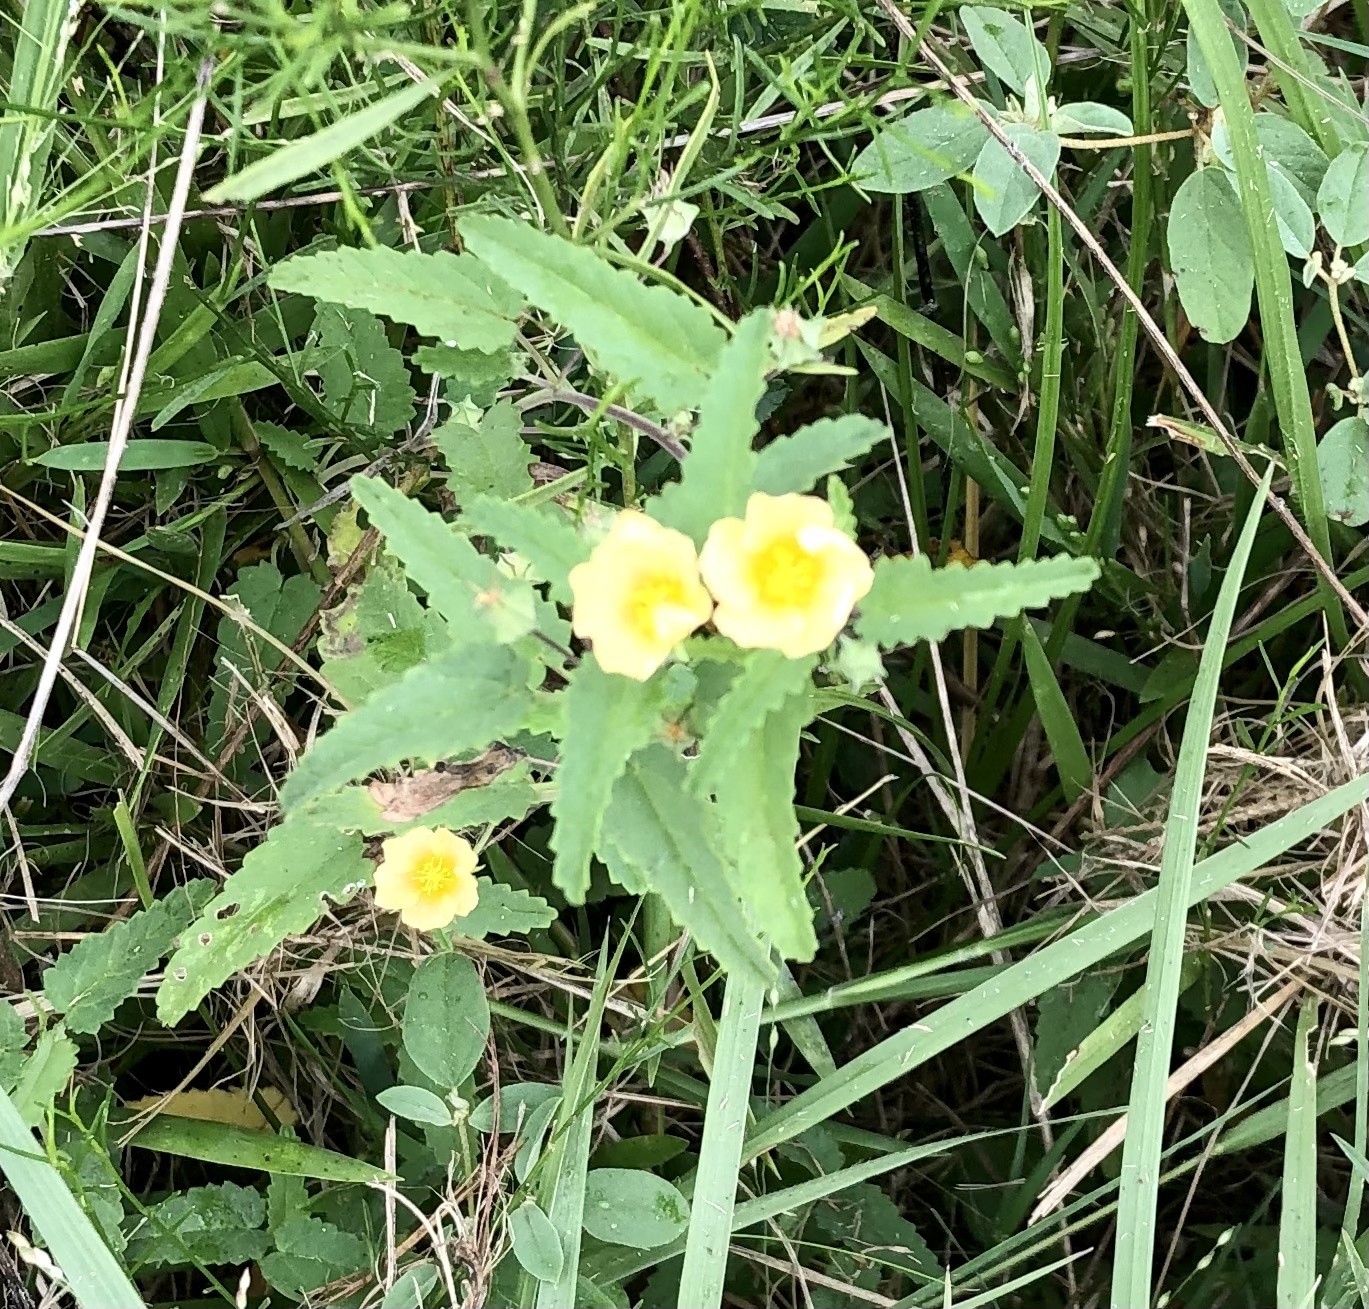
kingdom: Plantae
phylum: Tracheophyta
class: Magnoliopsida
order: Malvales
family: Malvaceae
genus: Sida
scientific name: Sida abutilifolia
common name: Spreading fanpetals
